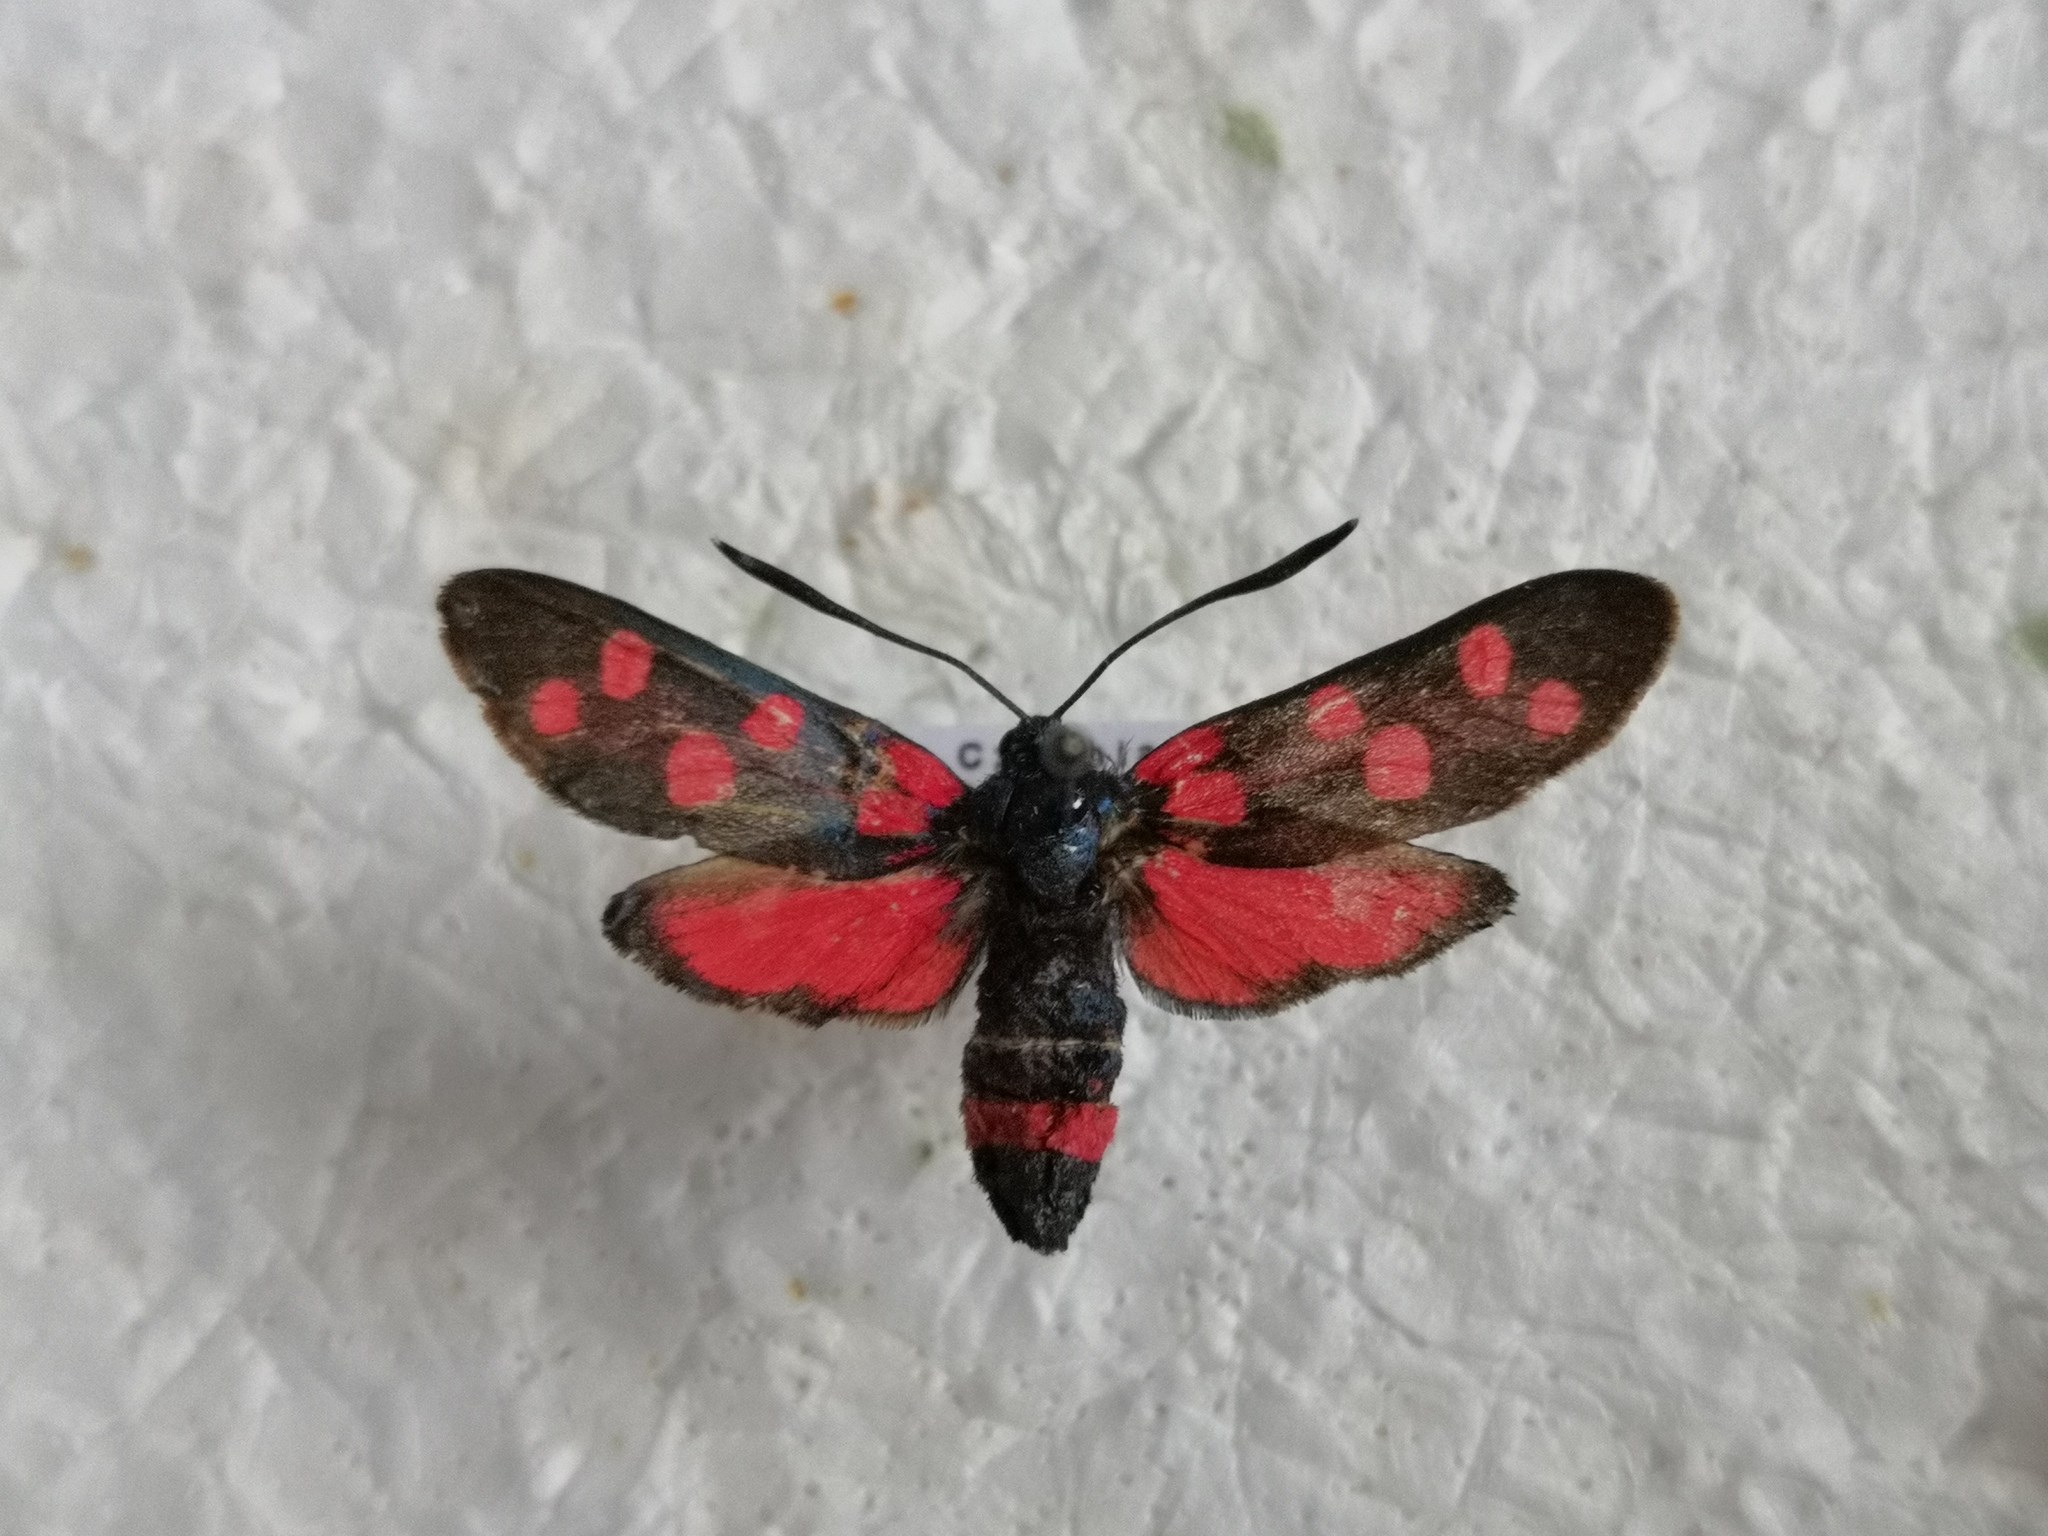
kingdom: Animalia
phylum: Arthropoda
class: Insecta
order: Lepidoptera
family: Zygaenidae
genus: Zygaena
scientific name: Zygaena ephialtes
